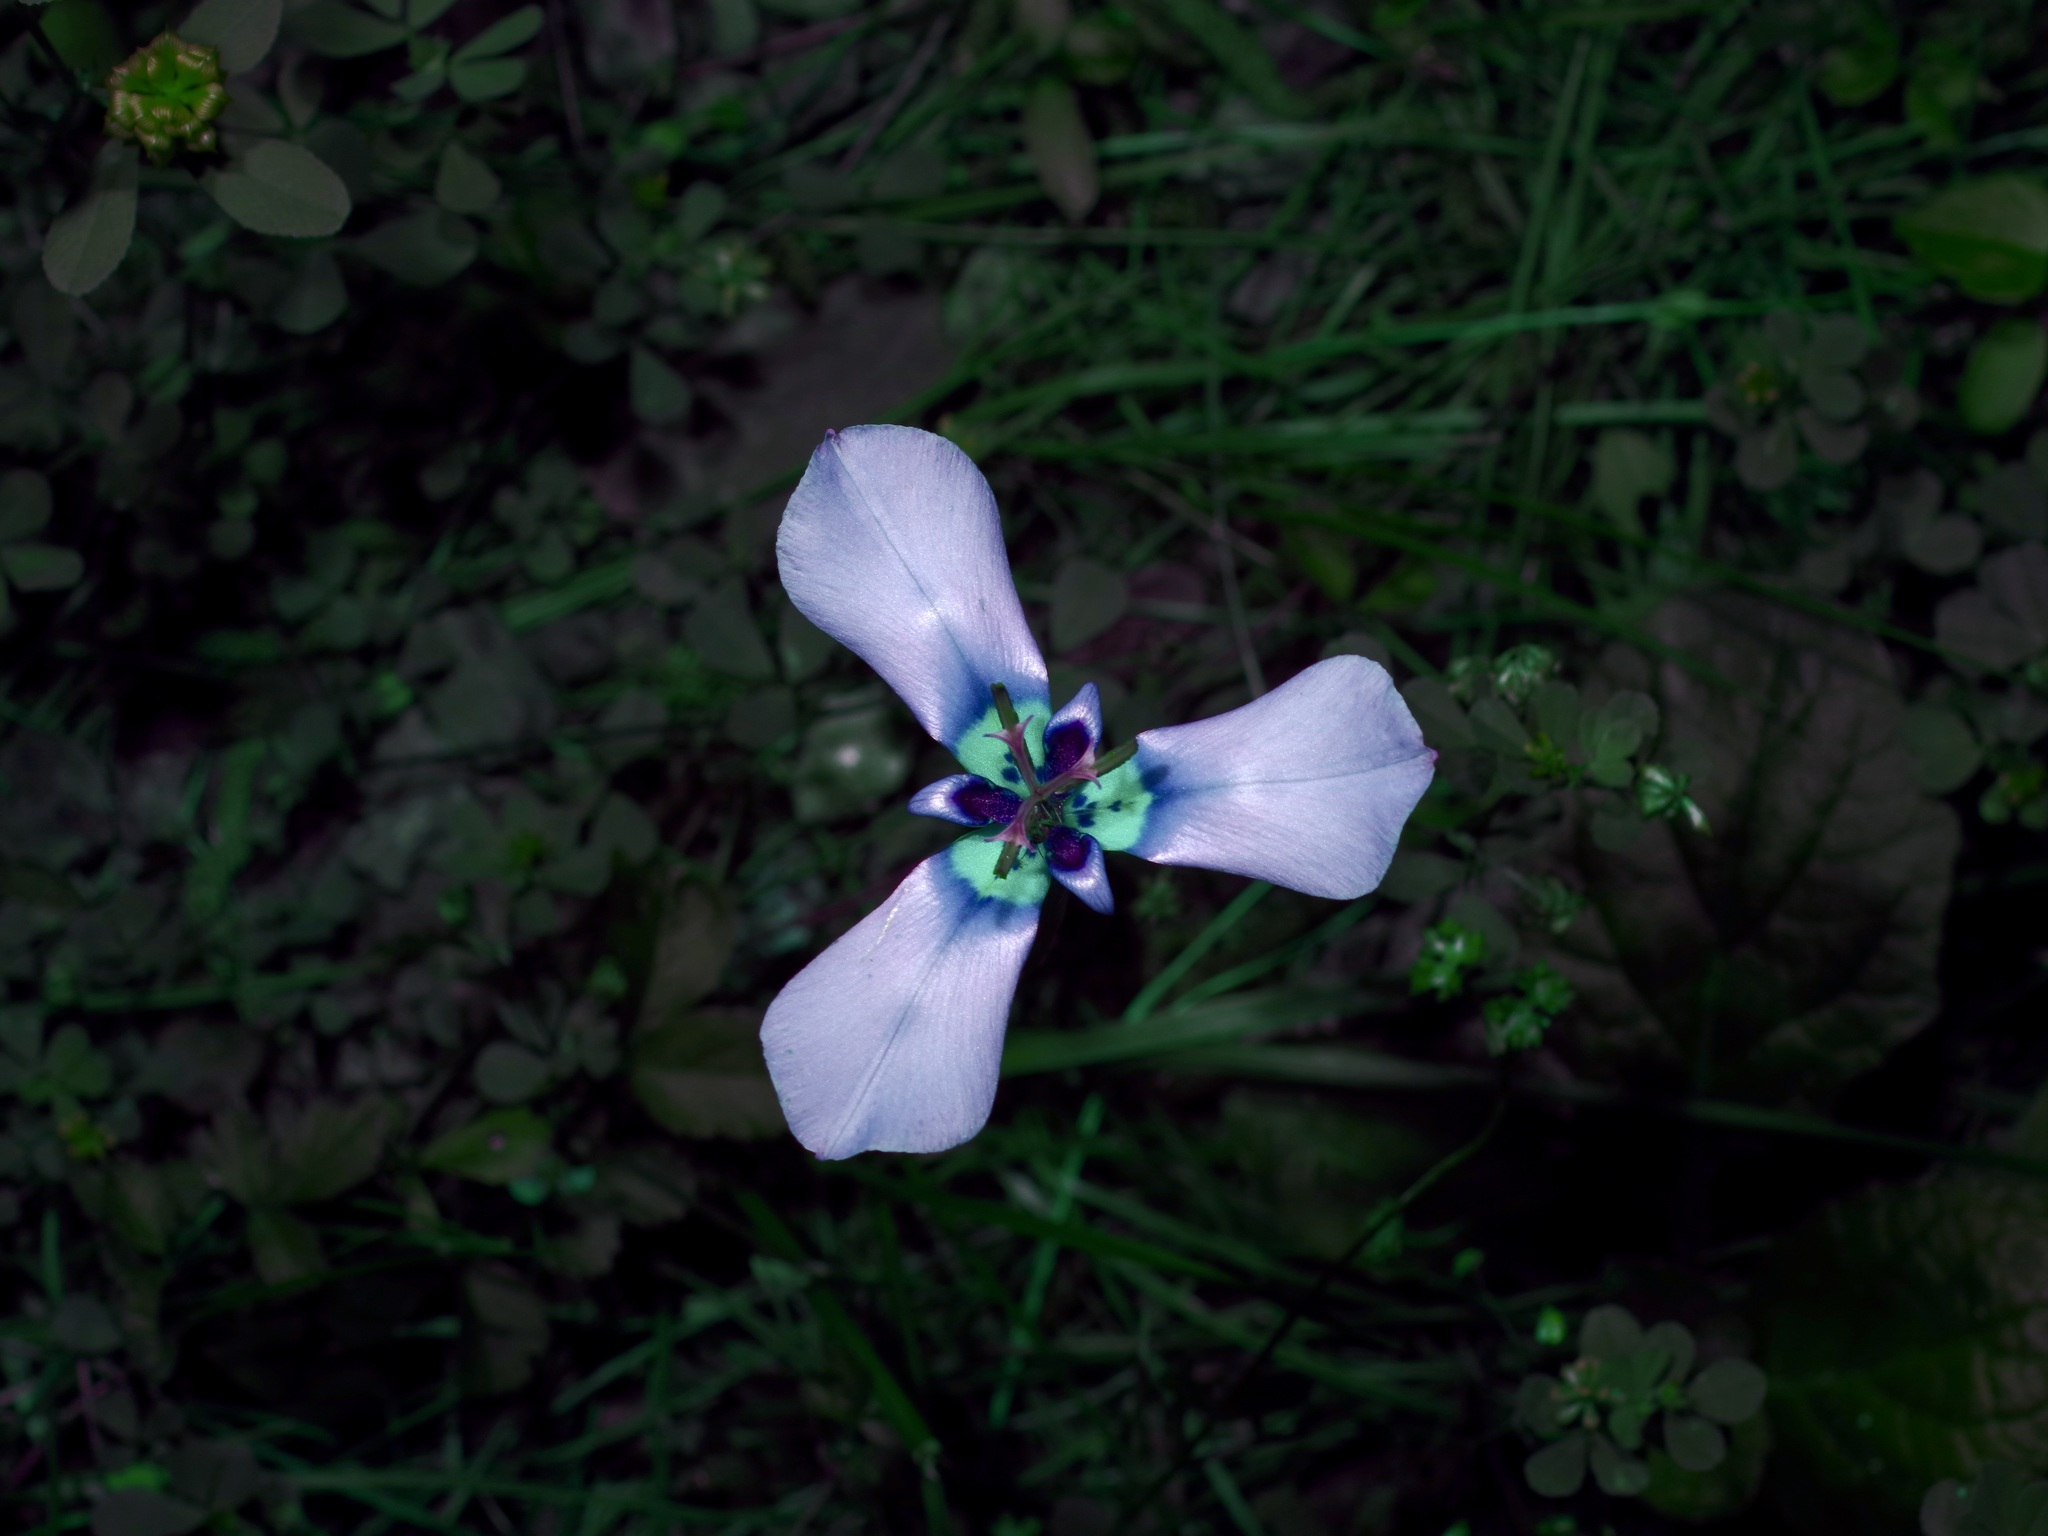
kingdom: Plantae
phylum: Tracheophyta
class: Liliopsida
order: Asparagales
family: Iridaceae
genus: Herbertia
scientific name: Herbertia lahue
